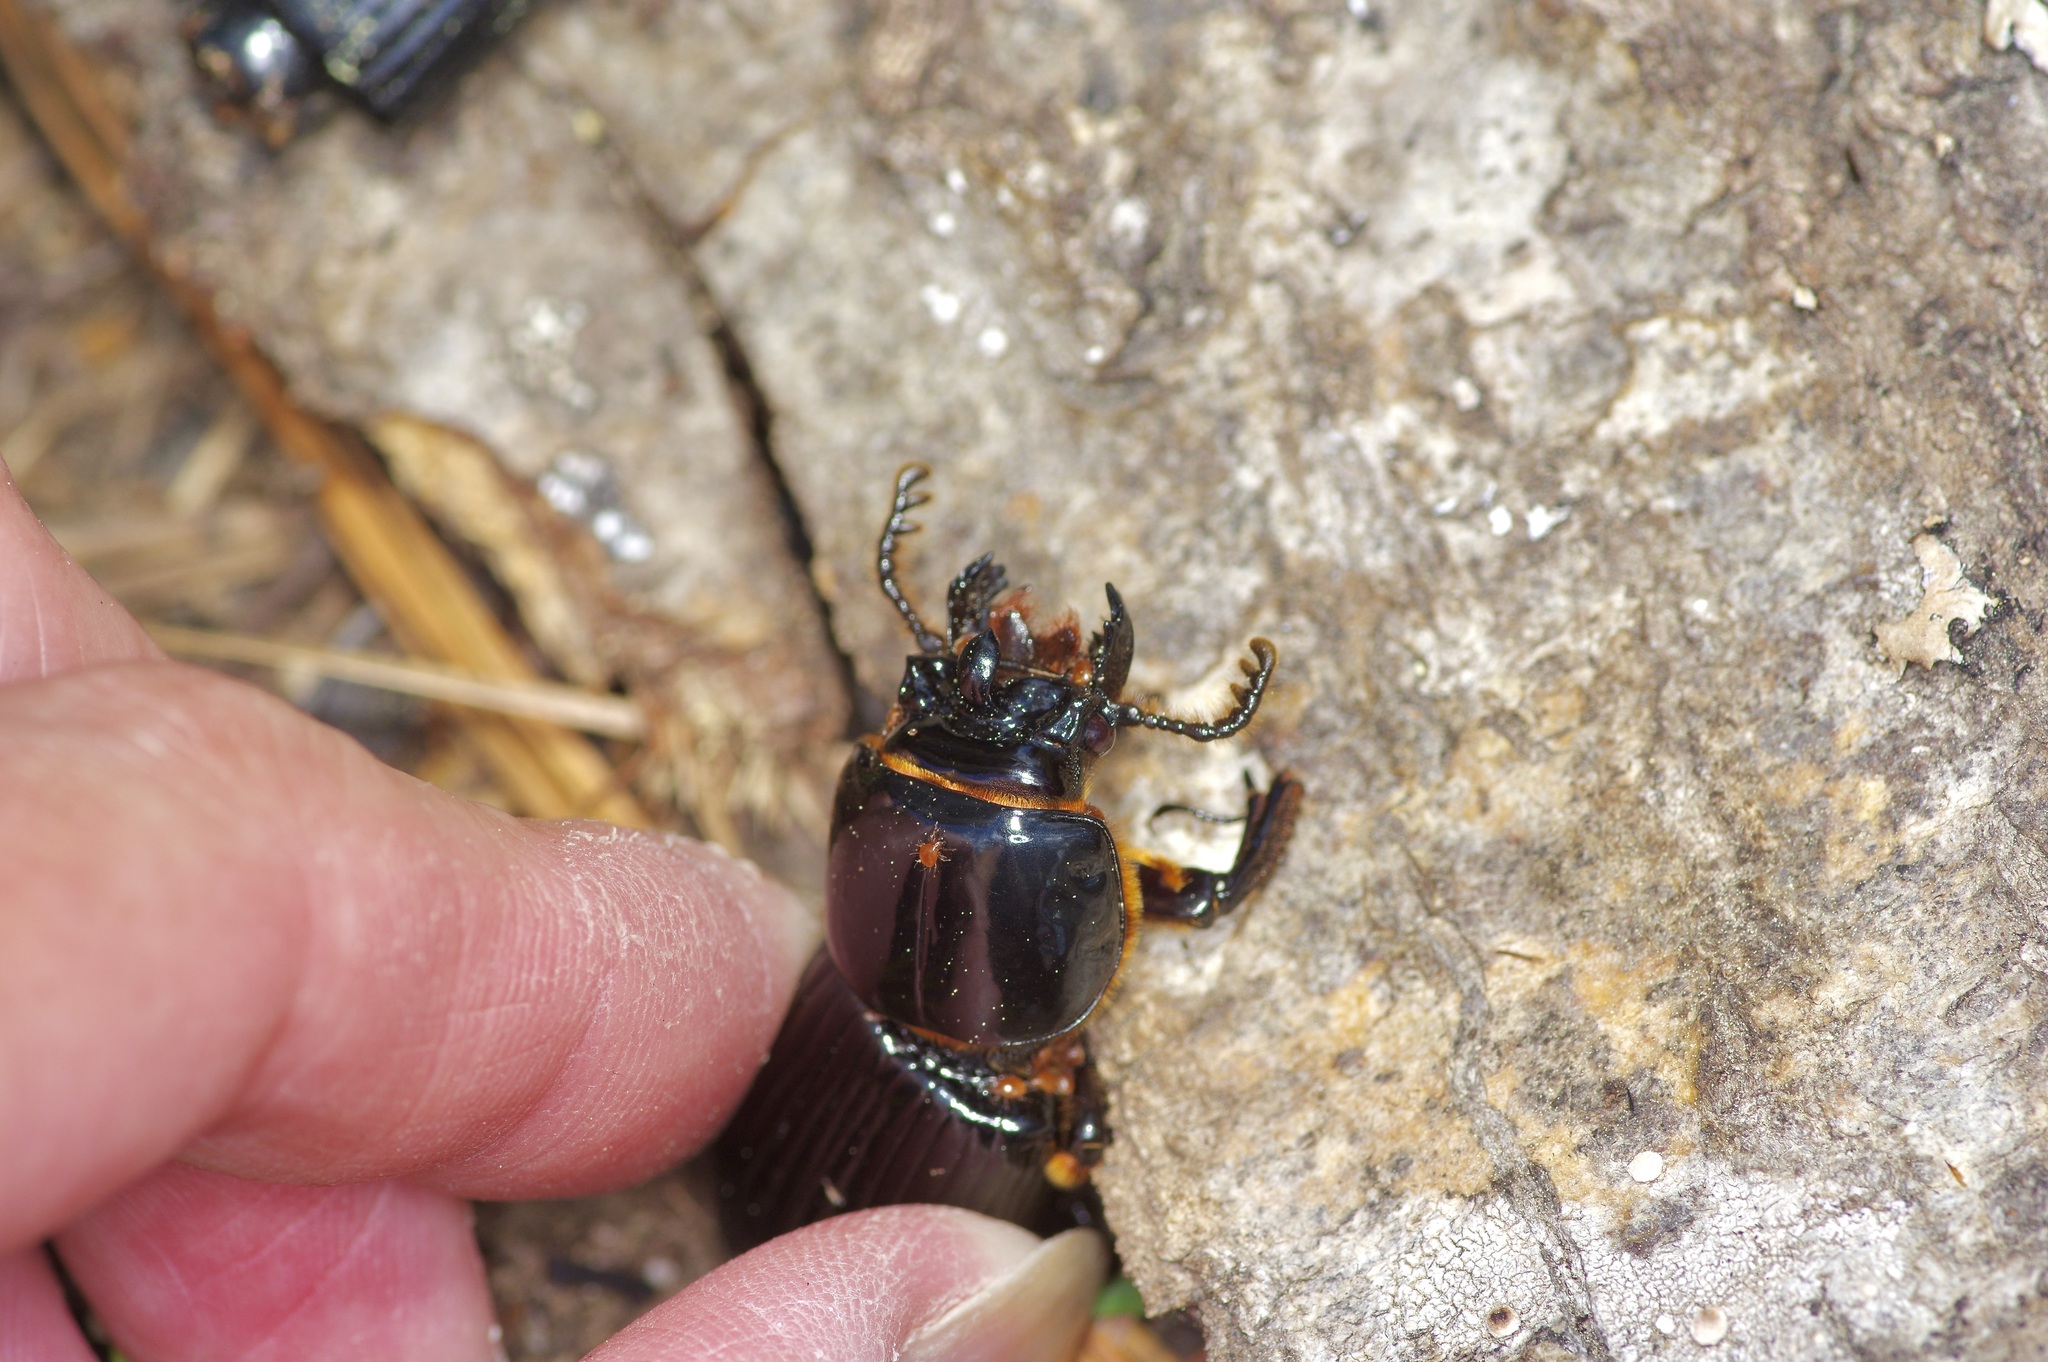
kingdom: Animalia
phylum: Arthropoda
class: Insecta
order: Coleoptera
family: Passalidae
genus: Odontotaenius
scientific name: Odontotaenius disjunctus
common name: Patent leather beetle
